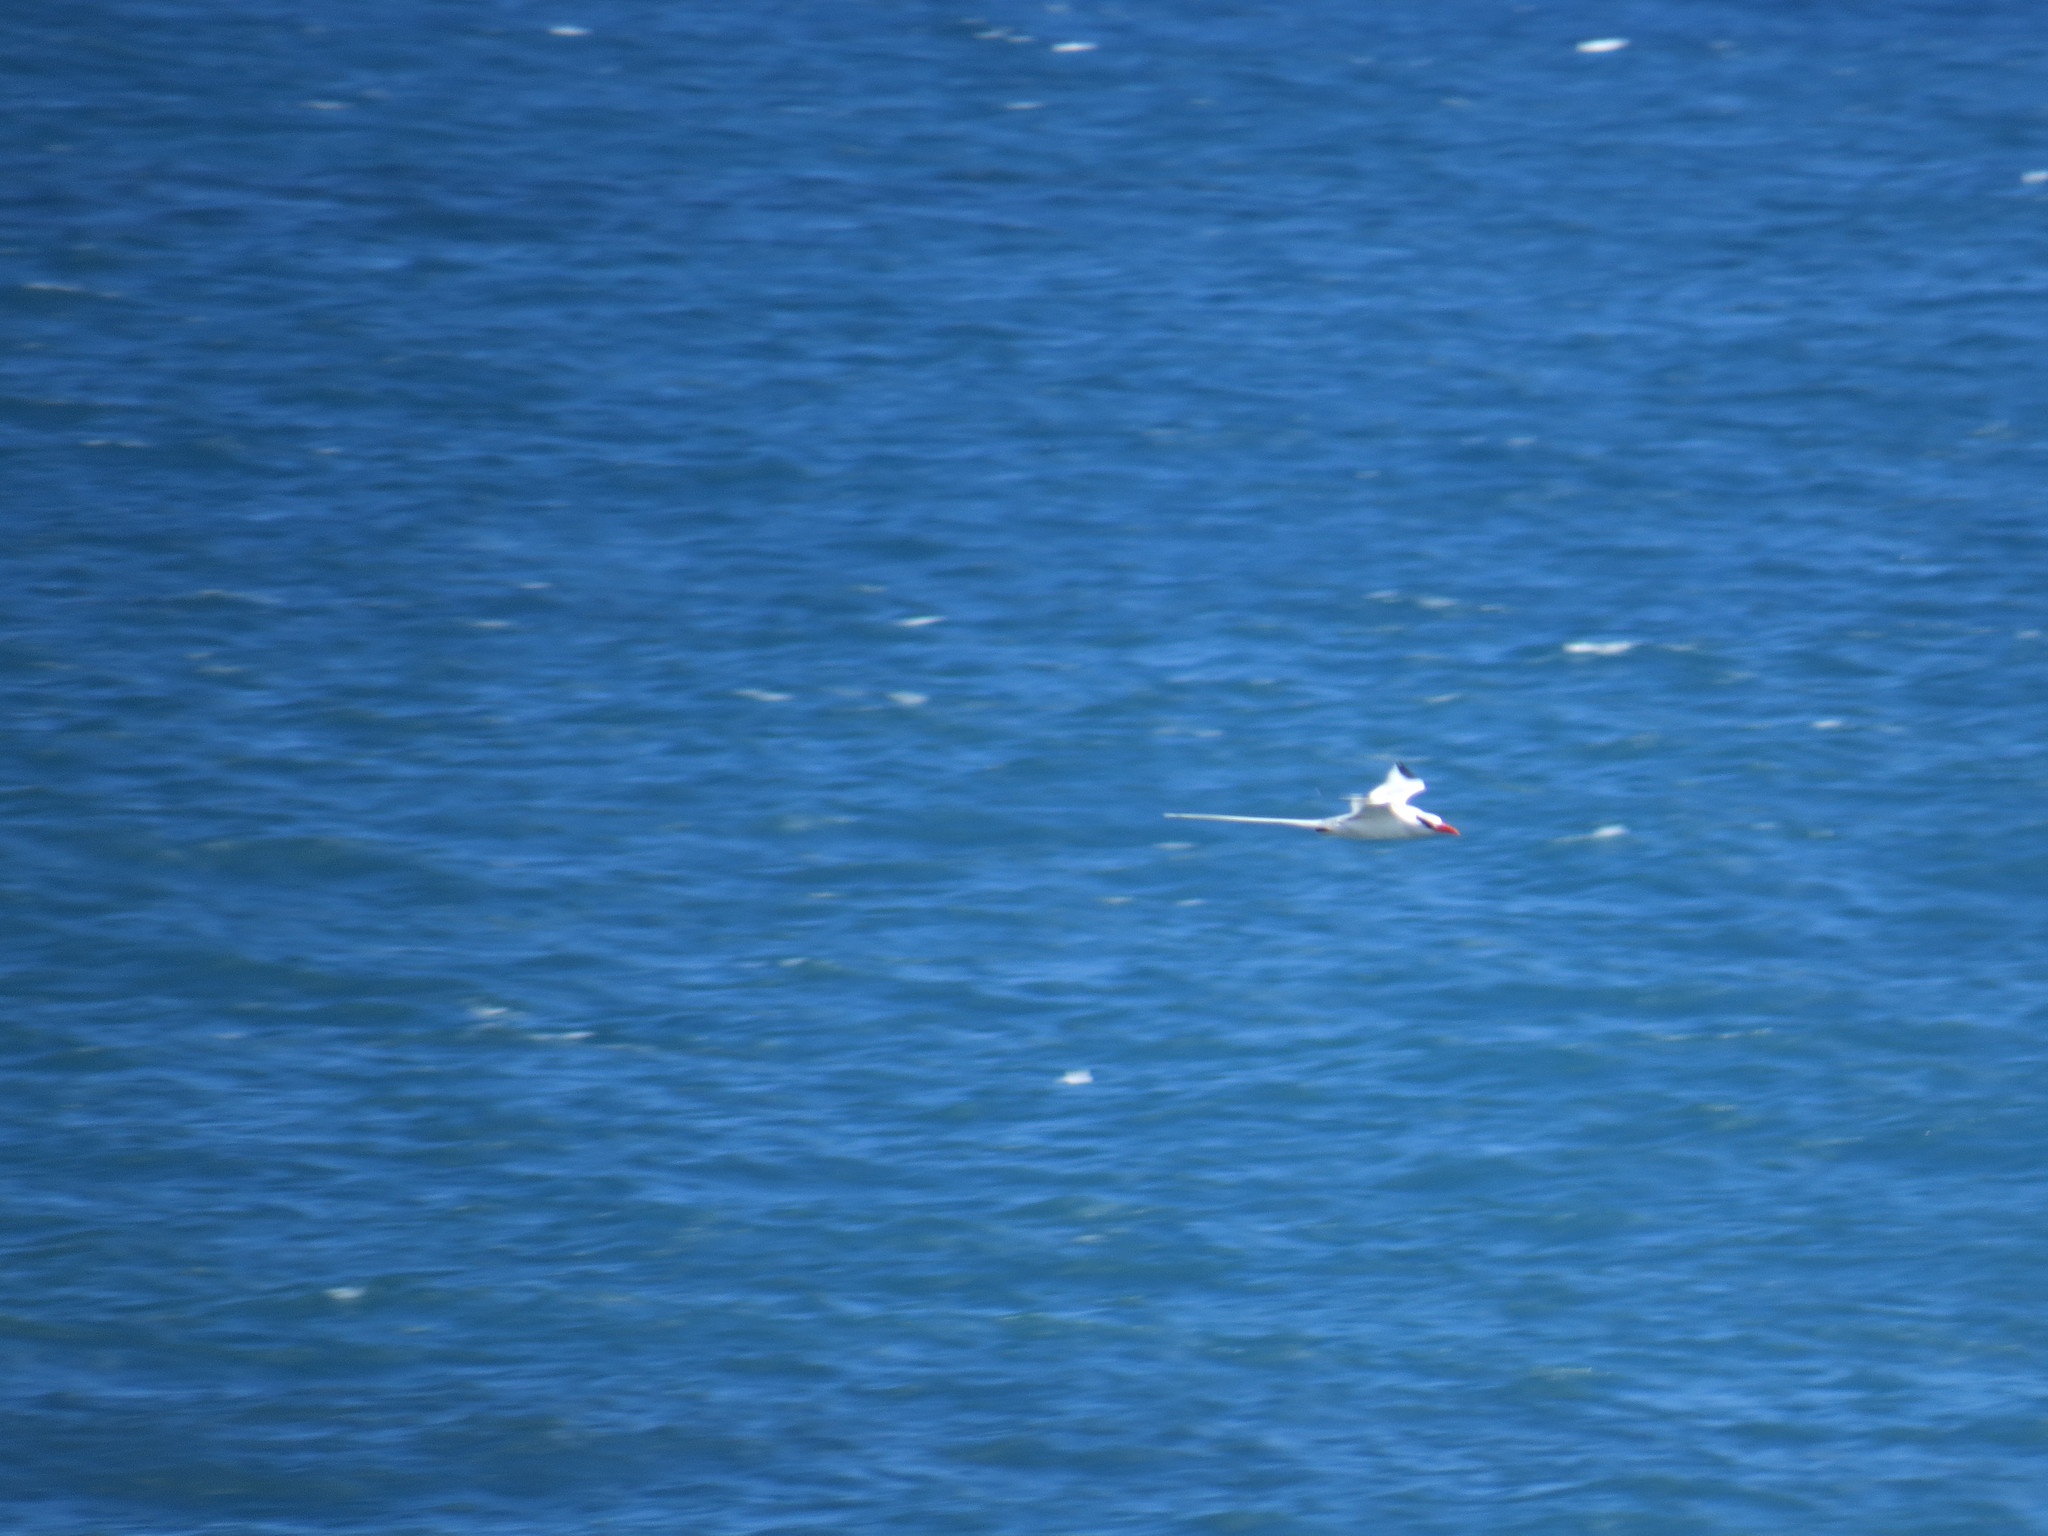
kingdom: Animalia
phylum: Chordata
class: Aves
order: Phaethontiformes
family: Phaethontidae
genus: Phaethon
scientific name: Phaethon aethereus
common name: Red-billed tropicbird
